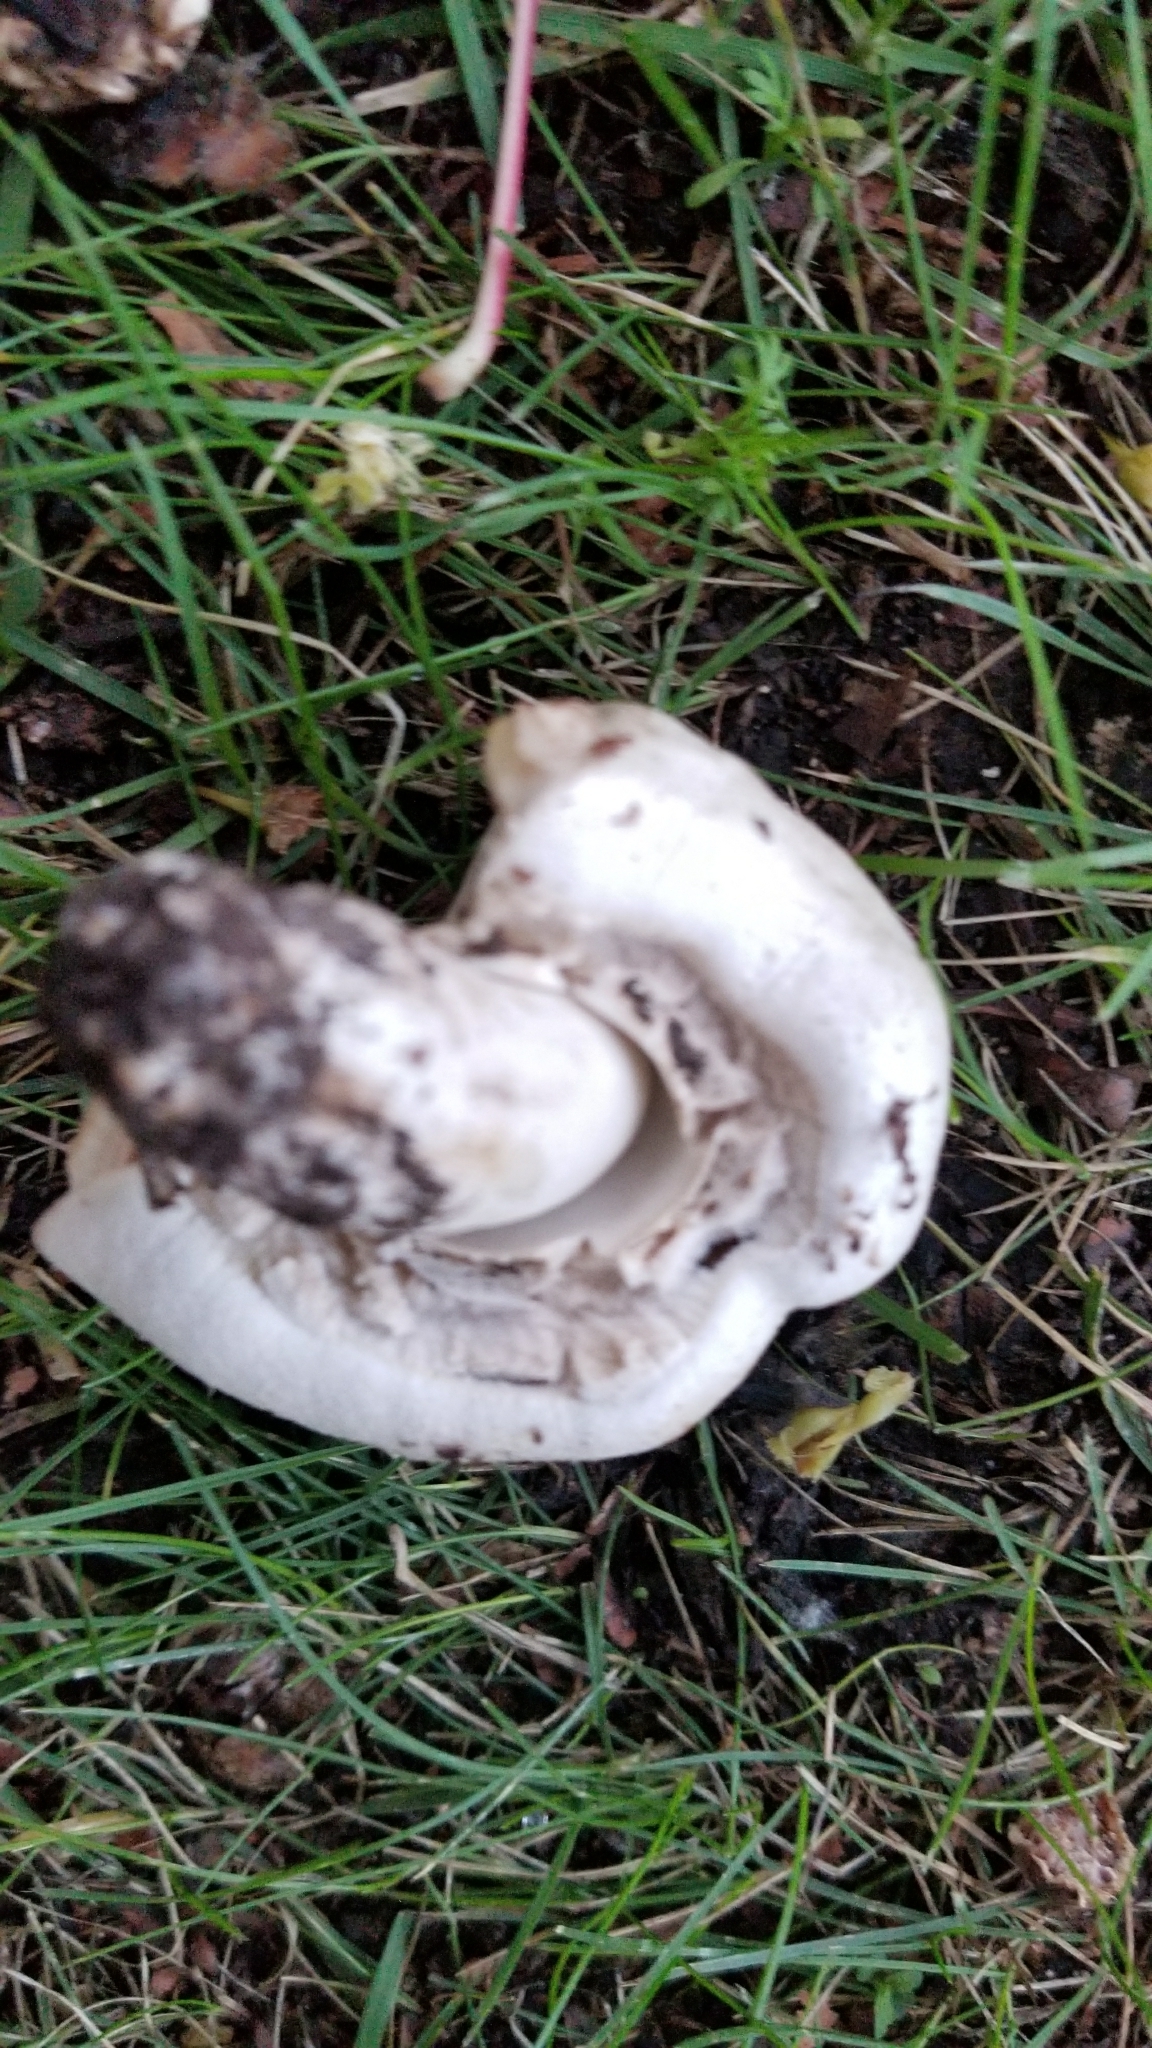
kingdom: Fungi
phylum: Basidiomycota
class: Agaricomycetes
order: Agaricales
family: Agaricaceae
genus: Agaricus
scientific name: Agaricus xanthodermus
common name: Yellow stainer
